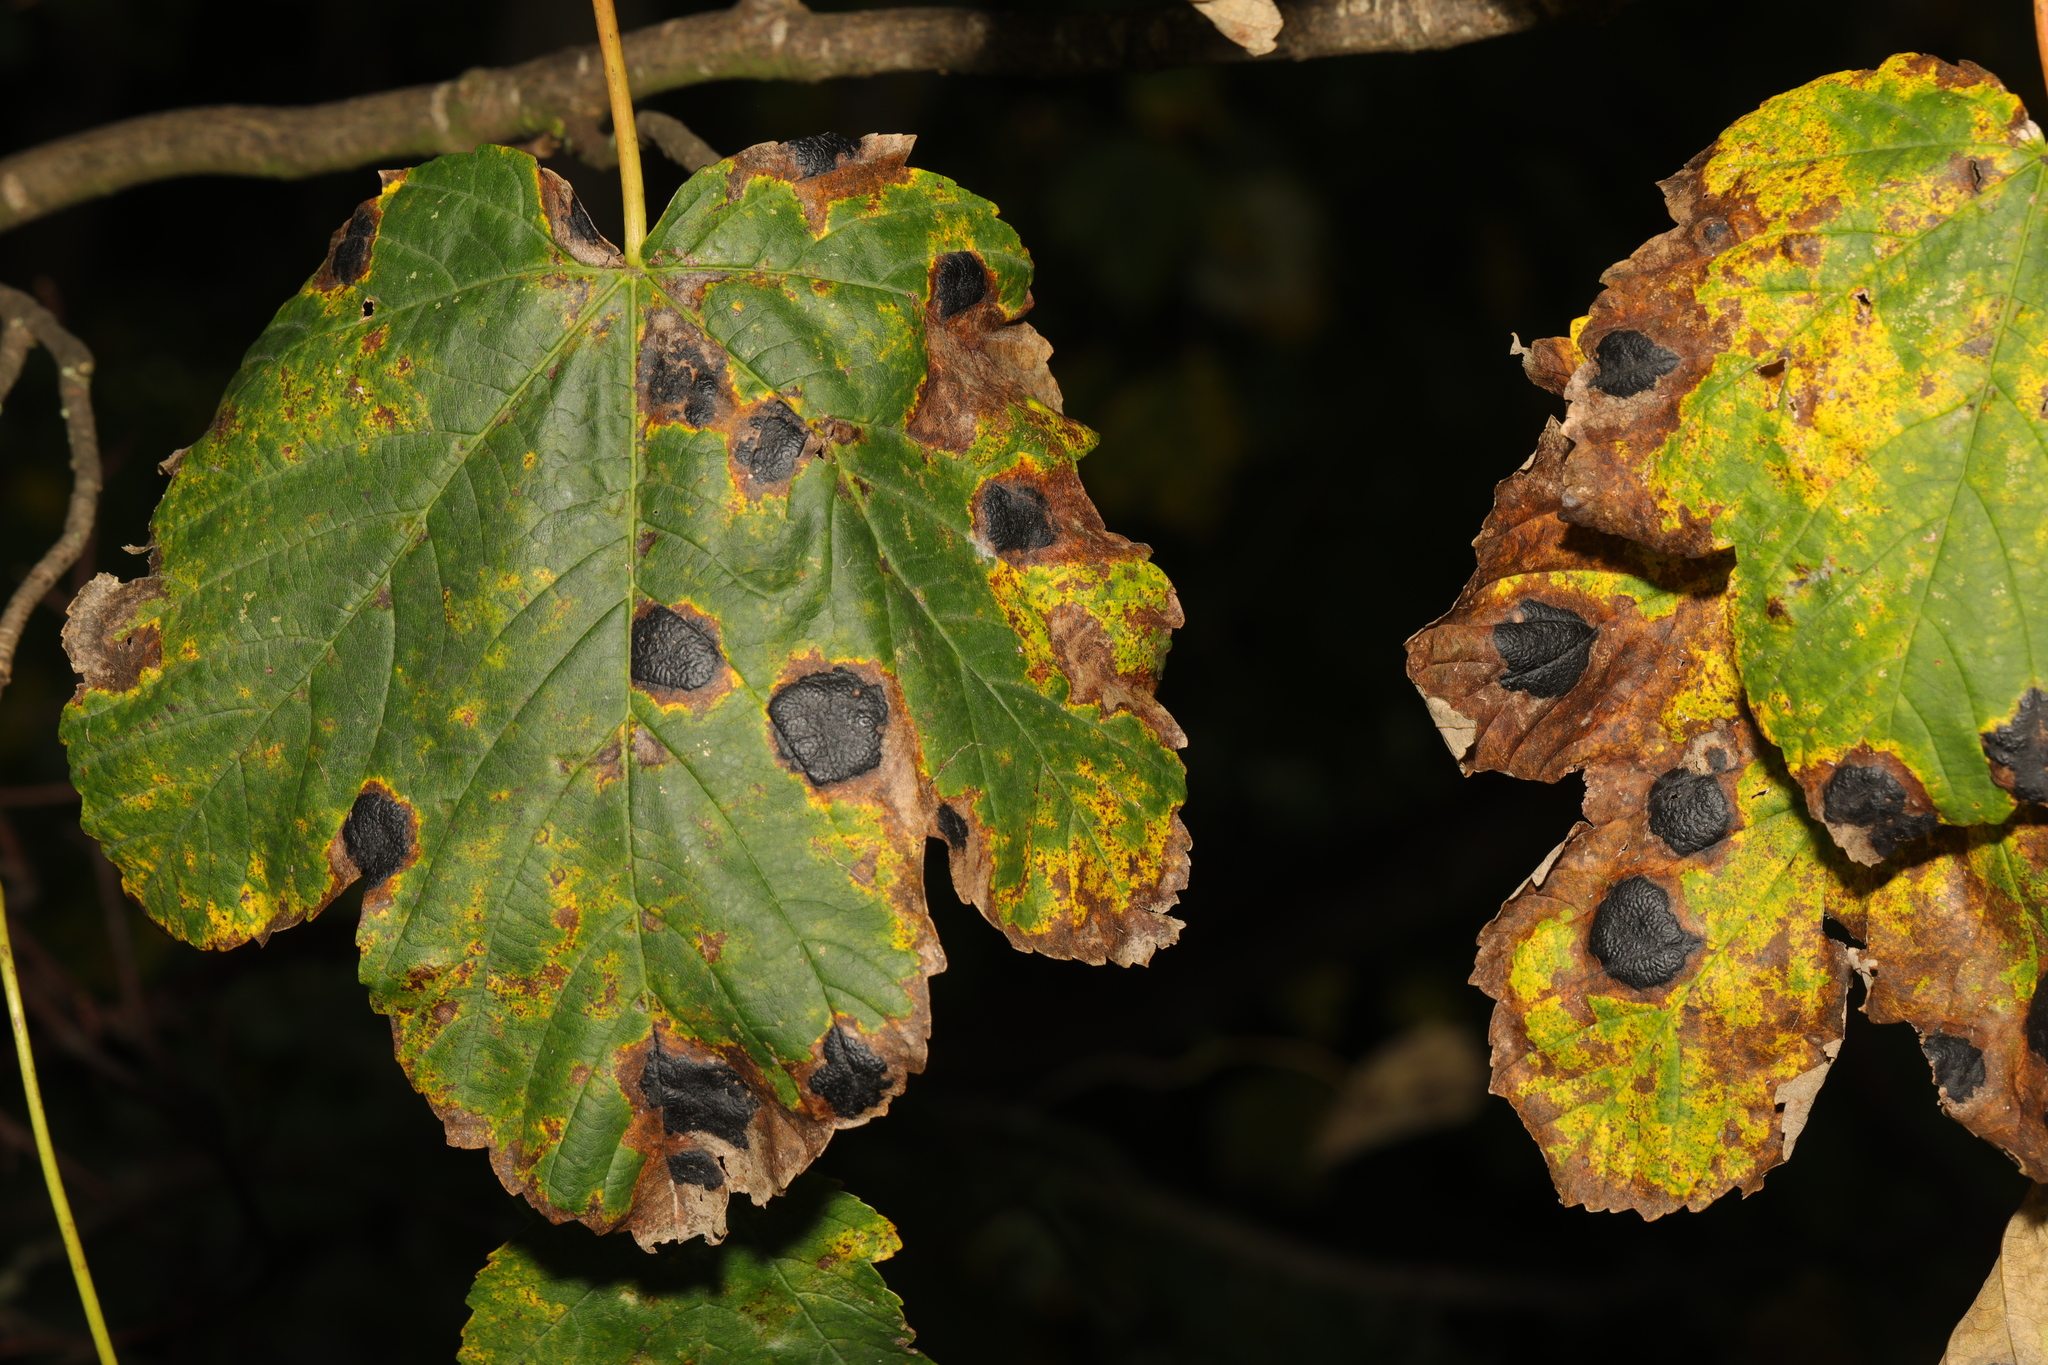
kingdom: Plantae
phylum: Tracheophyta
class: Magnoliopsida
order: Sapindales
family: Sapindaceae
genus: Acer
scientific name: Acer pseudoplatanus
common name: Sycamore
